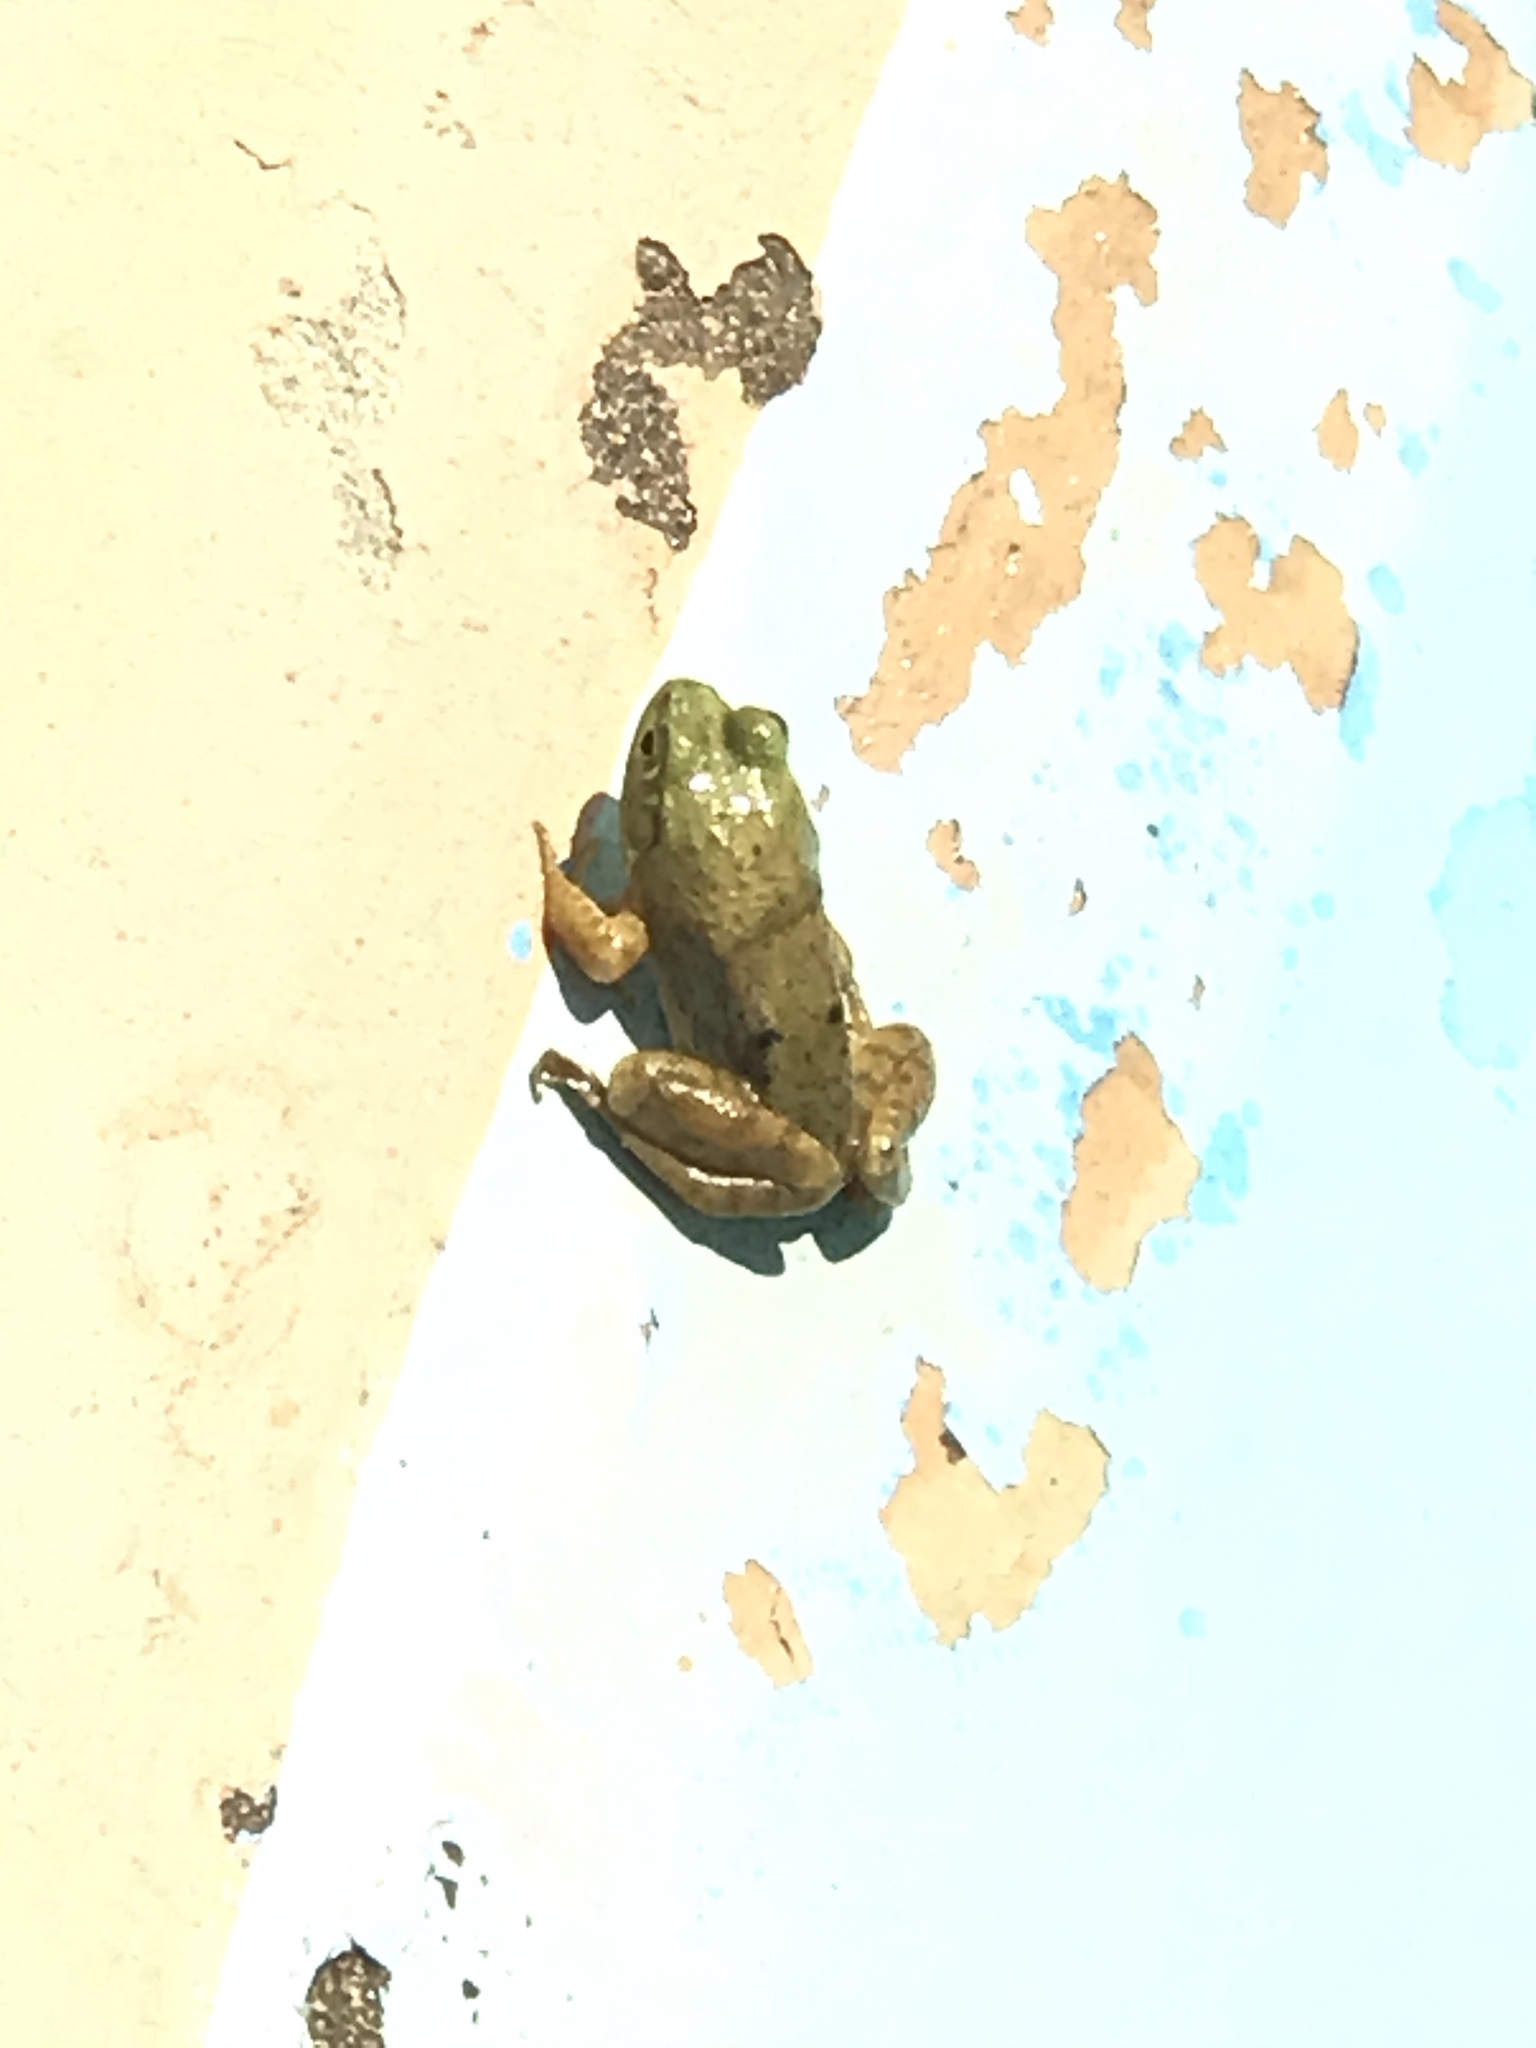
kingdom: Animalia
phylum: Chordata
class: Amphibia
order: Anura
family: Ranidae
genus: Lithobates
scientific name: Lithobates catesbeianus
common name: American bullfrog
